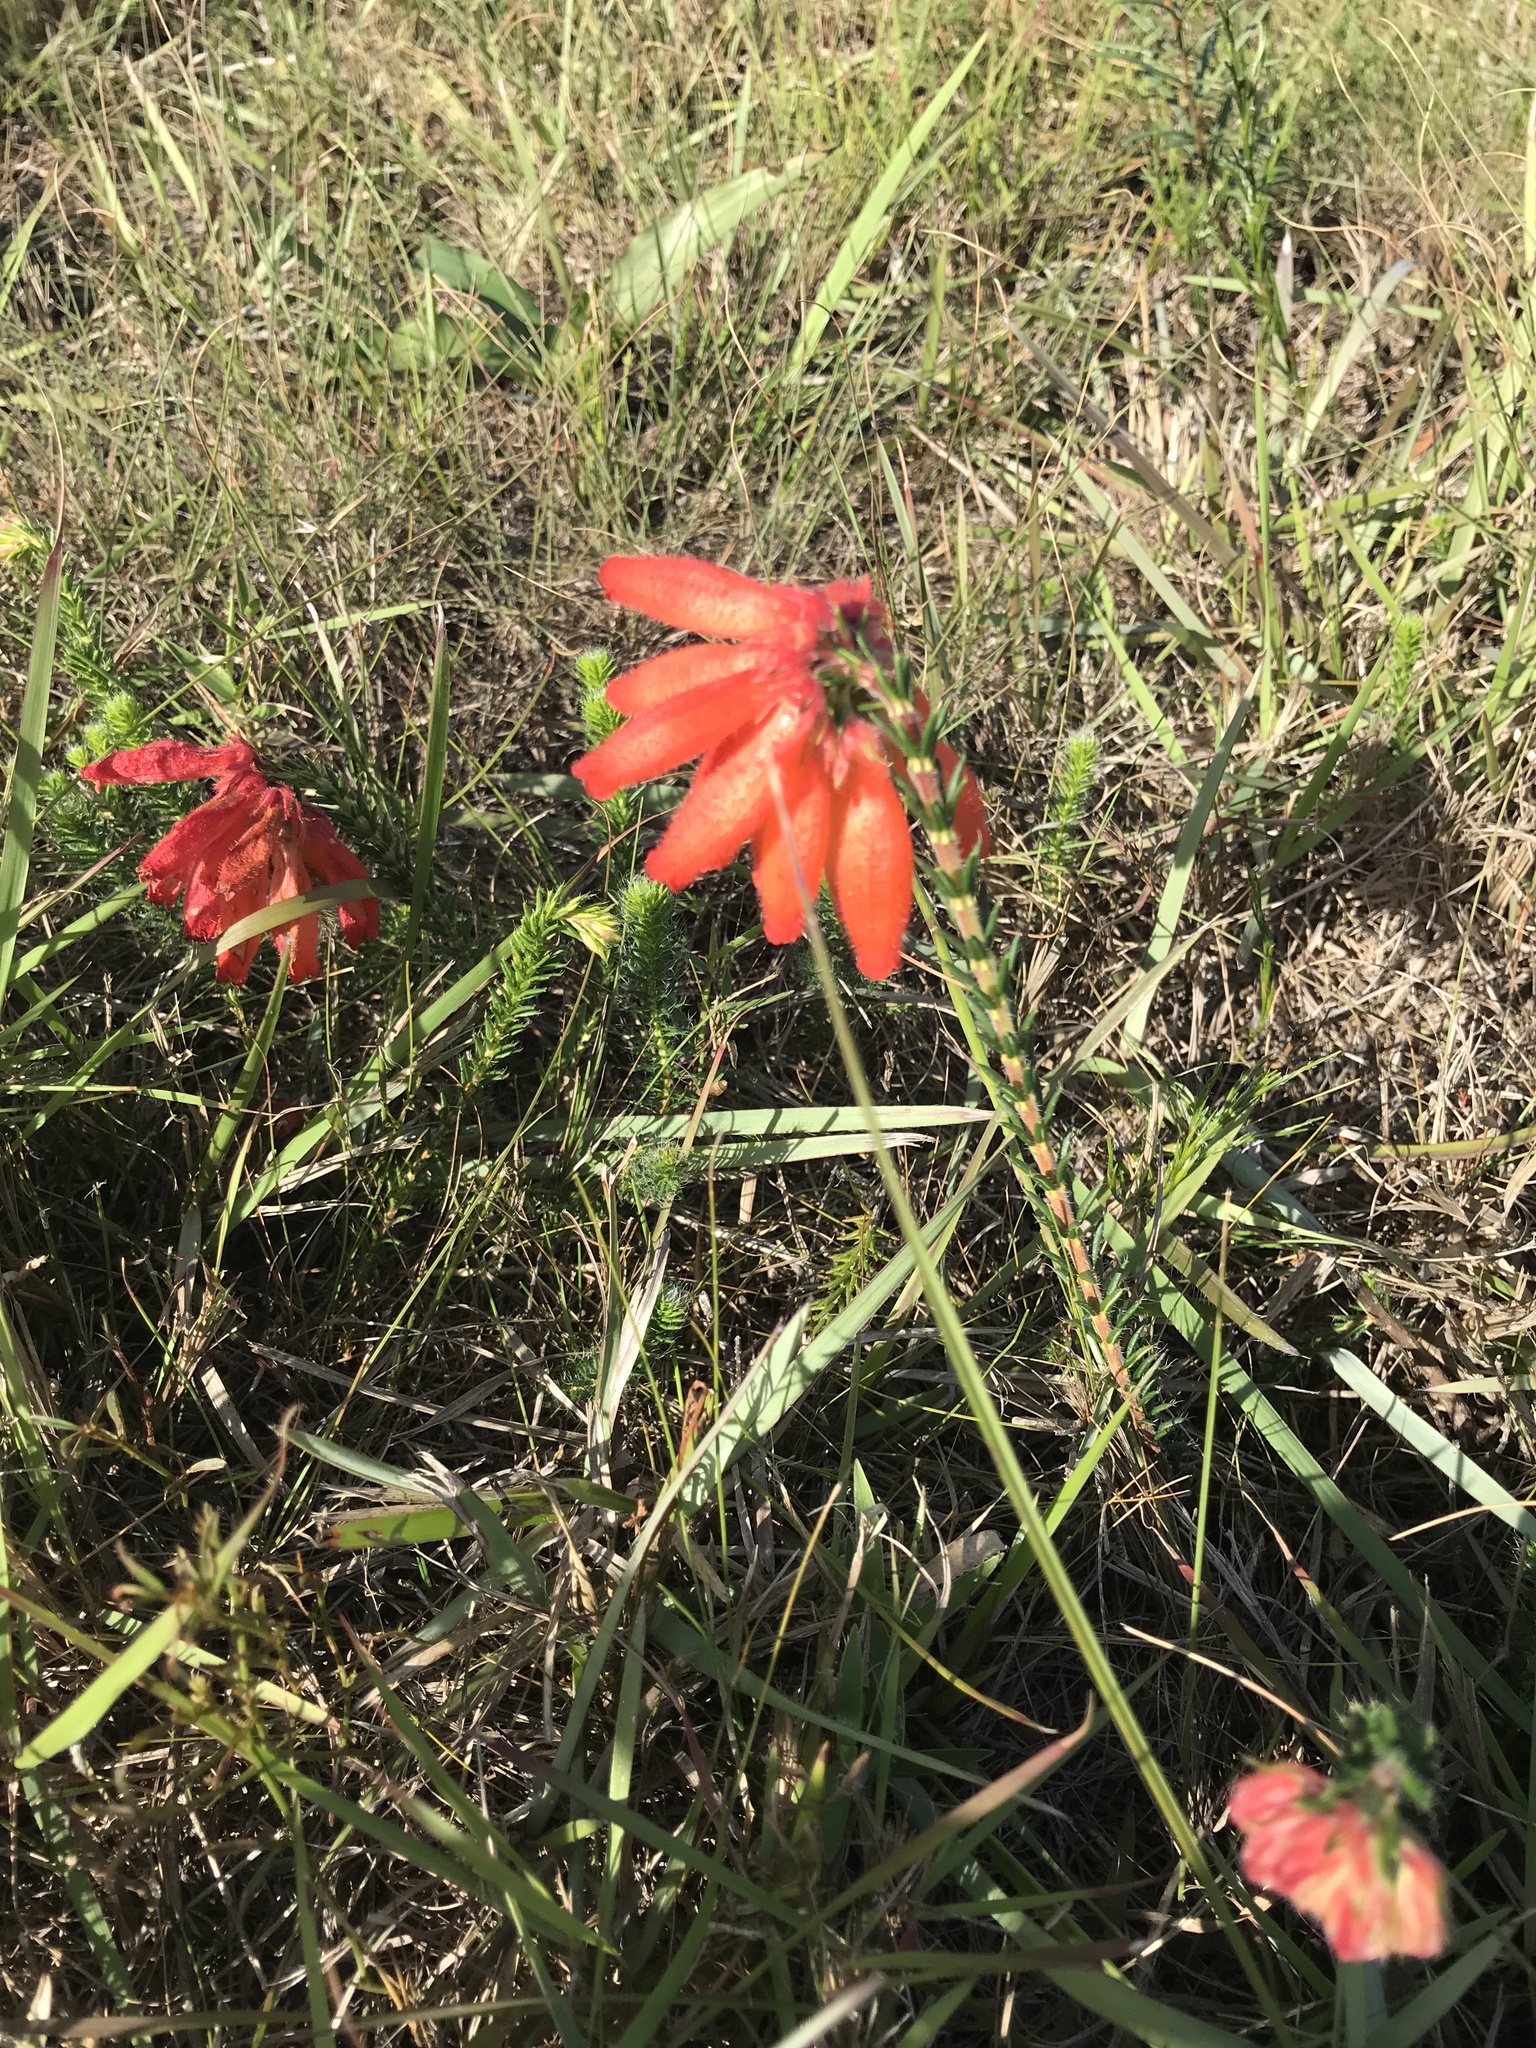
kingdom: Plantae
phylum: Tracheophyta
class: Magnoliopsida
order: Ericales
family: Ericaceae
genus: Erica
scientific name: Erica cerinthoides
